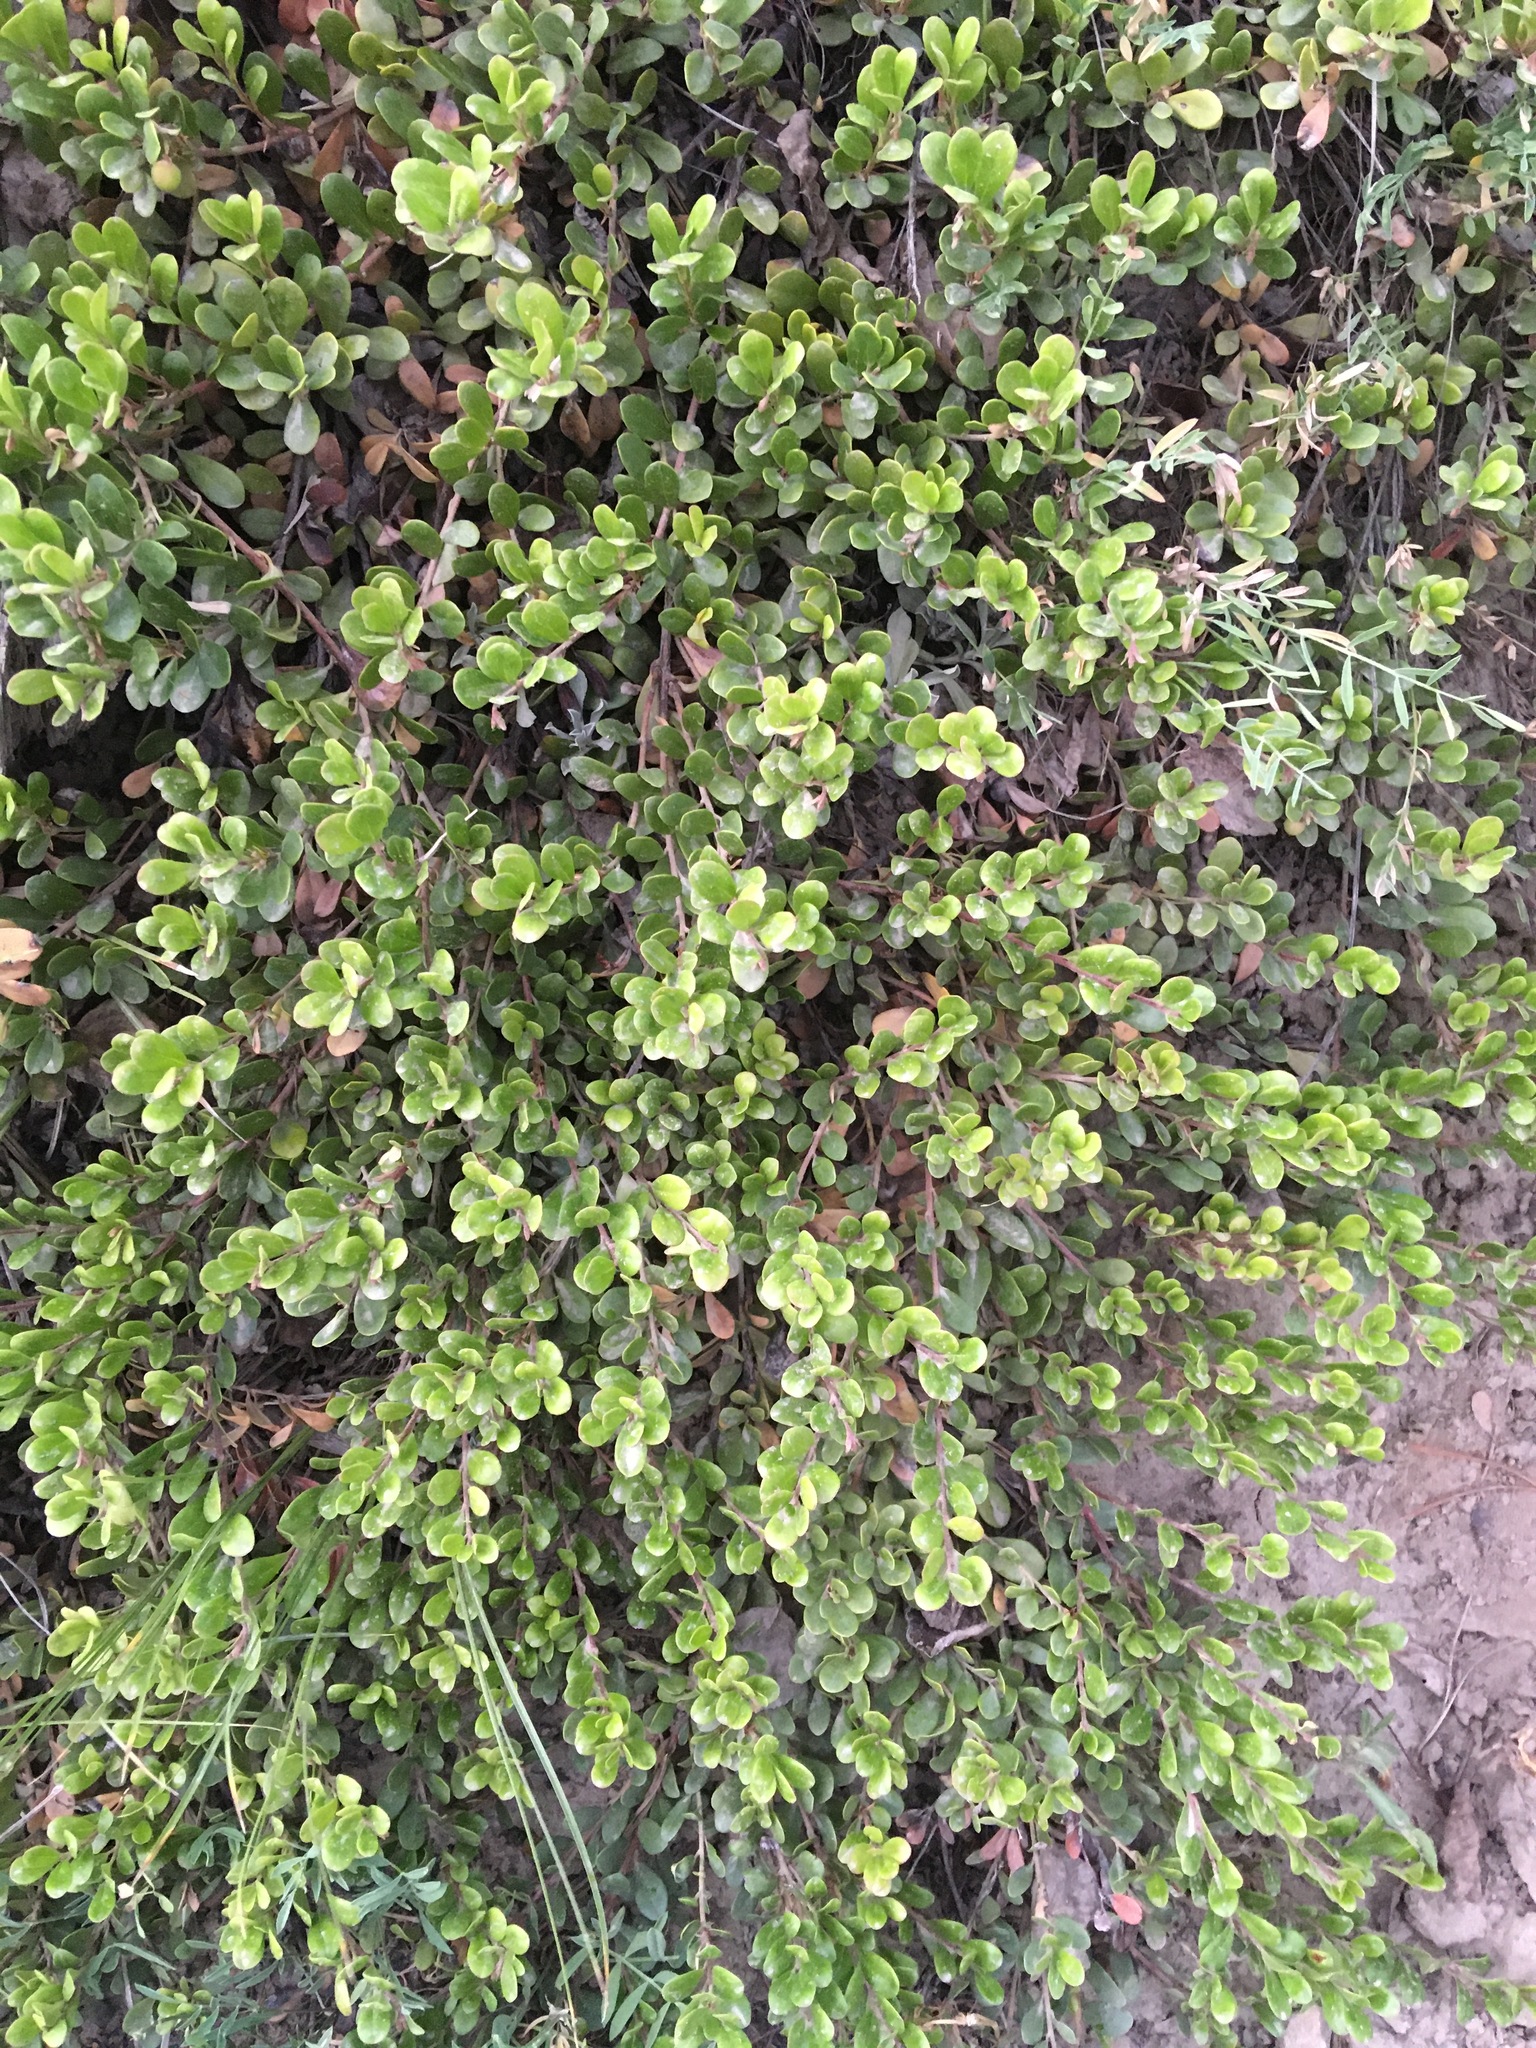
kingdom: Plantae
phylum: Tracheophyta
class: Magnoliopsida
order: Ericales
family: Ericaceae
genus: Arctostaphylos
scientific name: Arctostaphylos uva-ursi
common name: Bearberry
